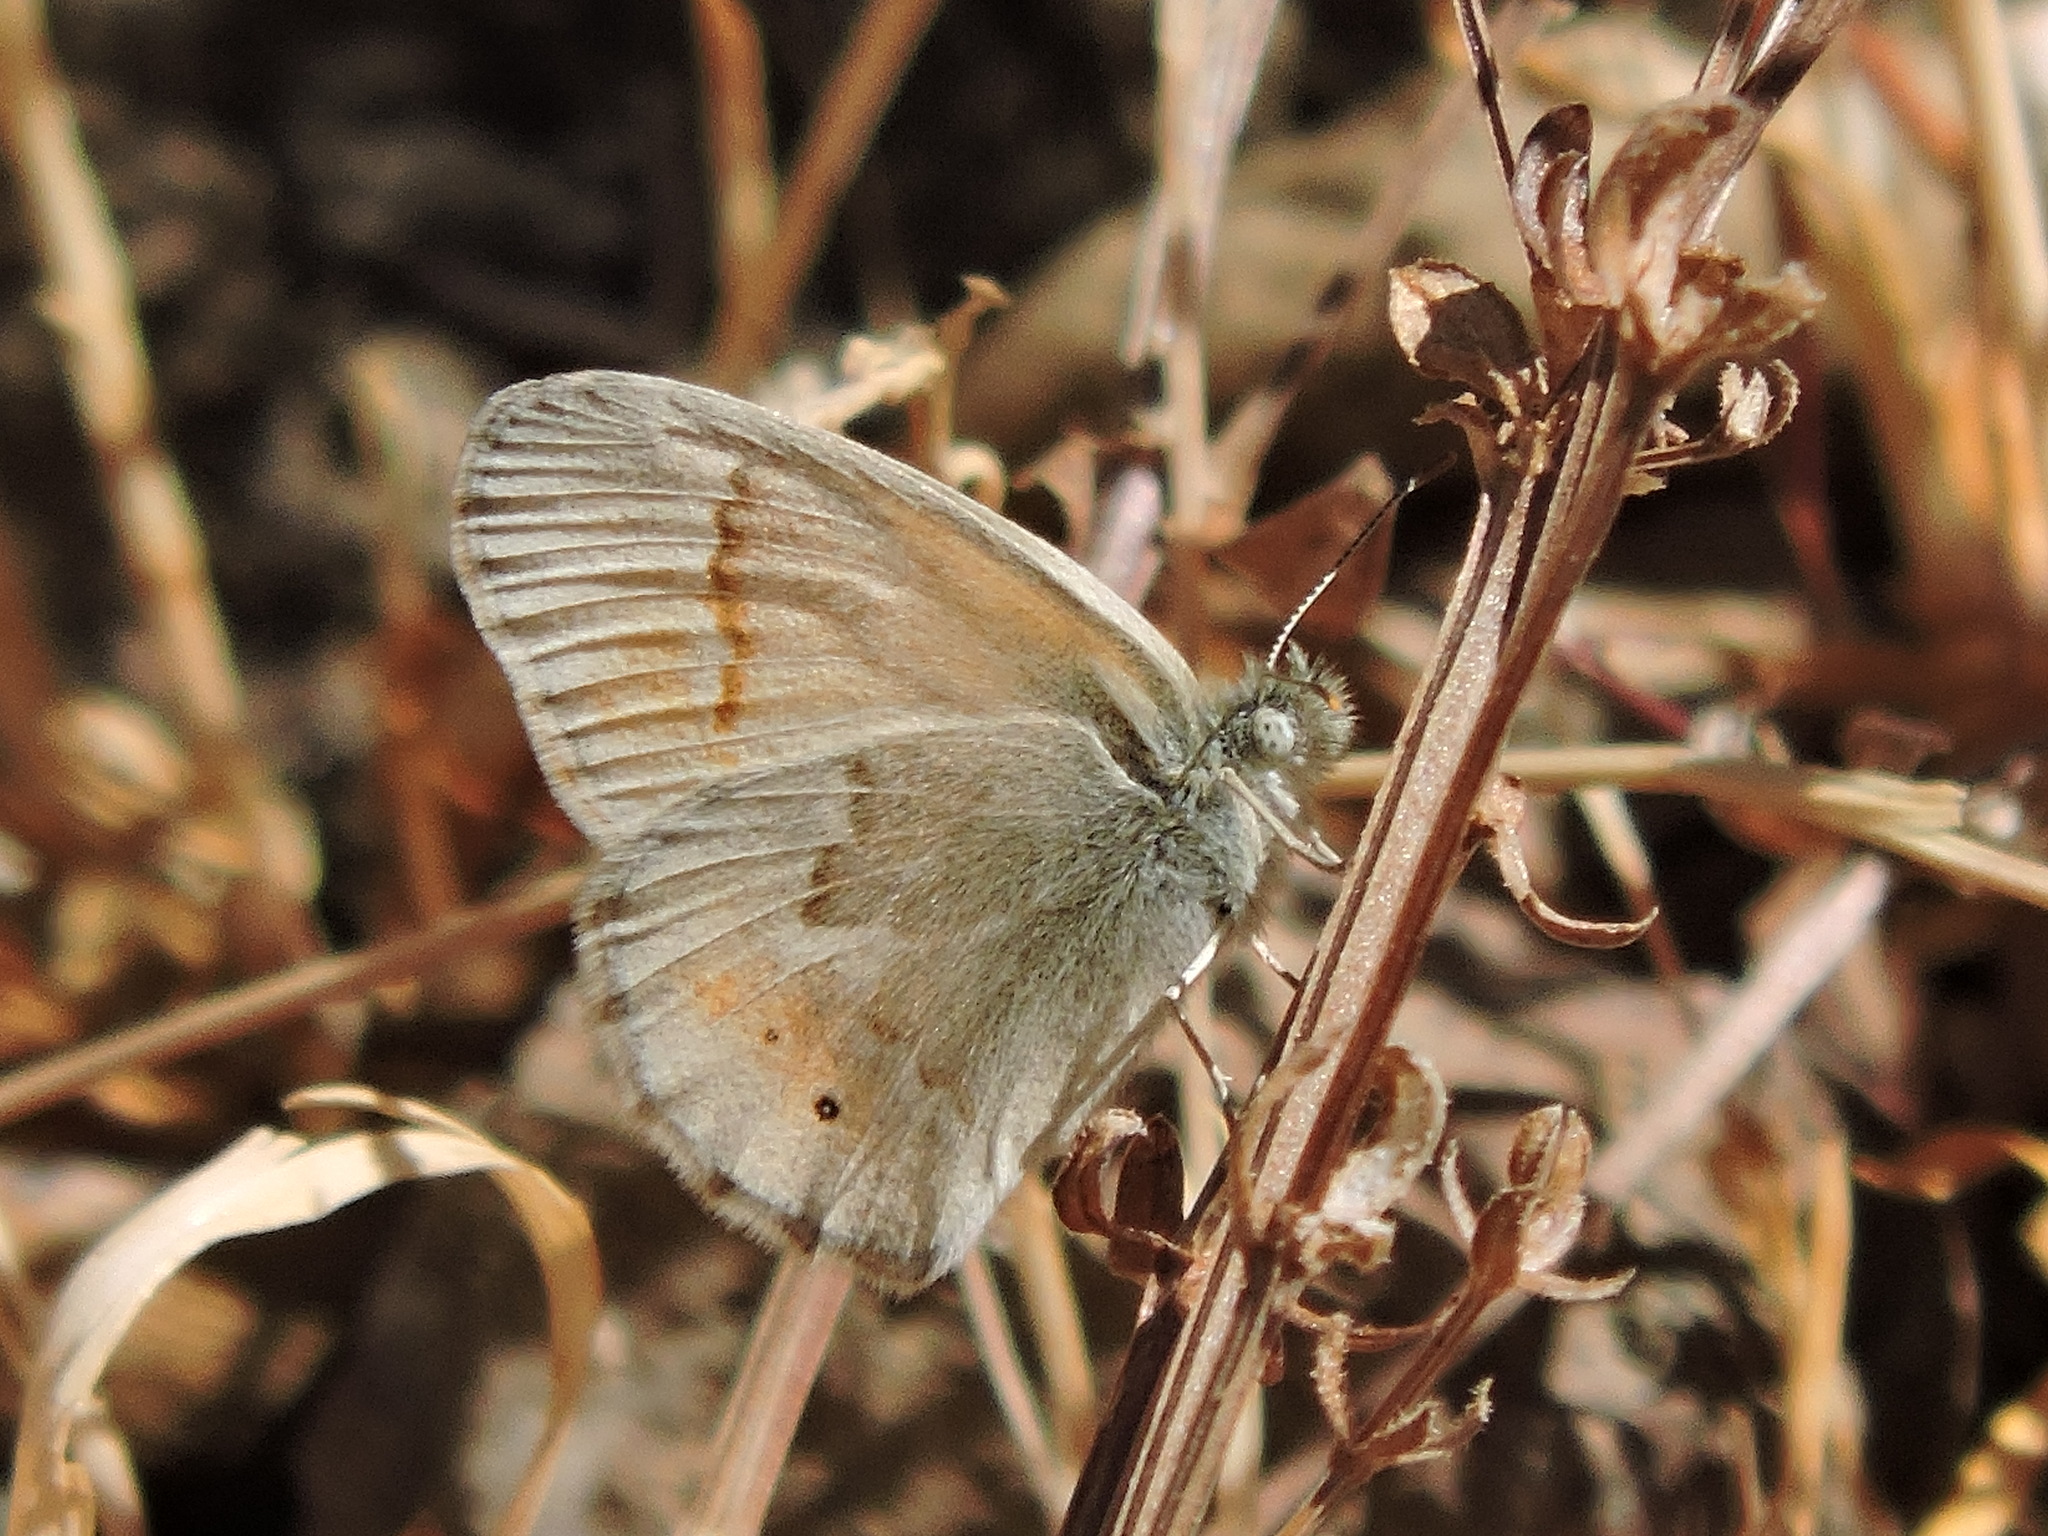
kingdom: Animalia
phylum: Arthropoda
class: Insecta
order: Lepidoptera
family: Nymphalidae
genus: Coenonympha
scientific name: Coenonympha california
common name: Common ringlet
